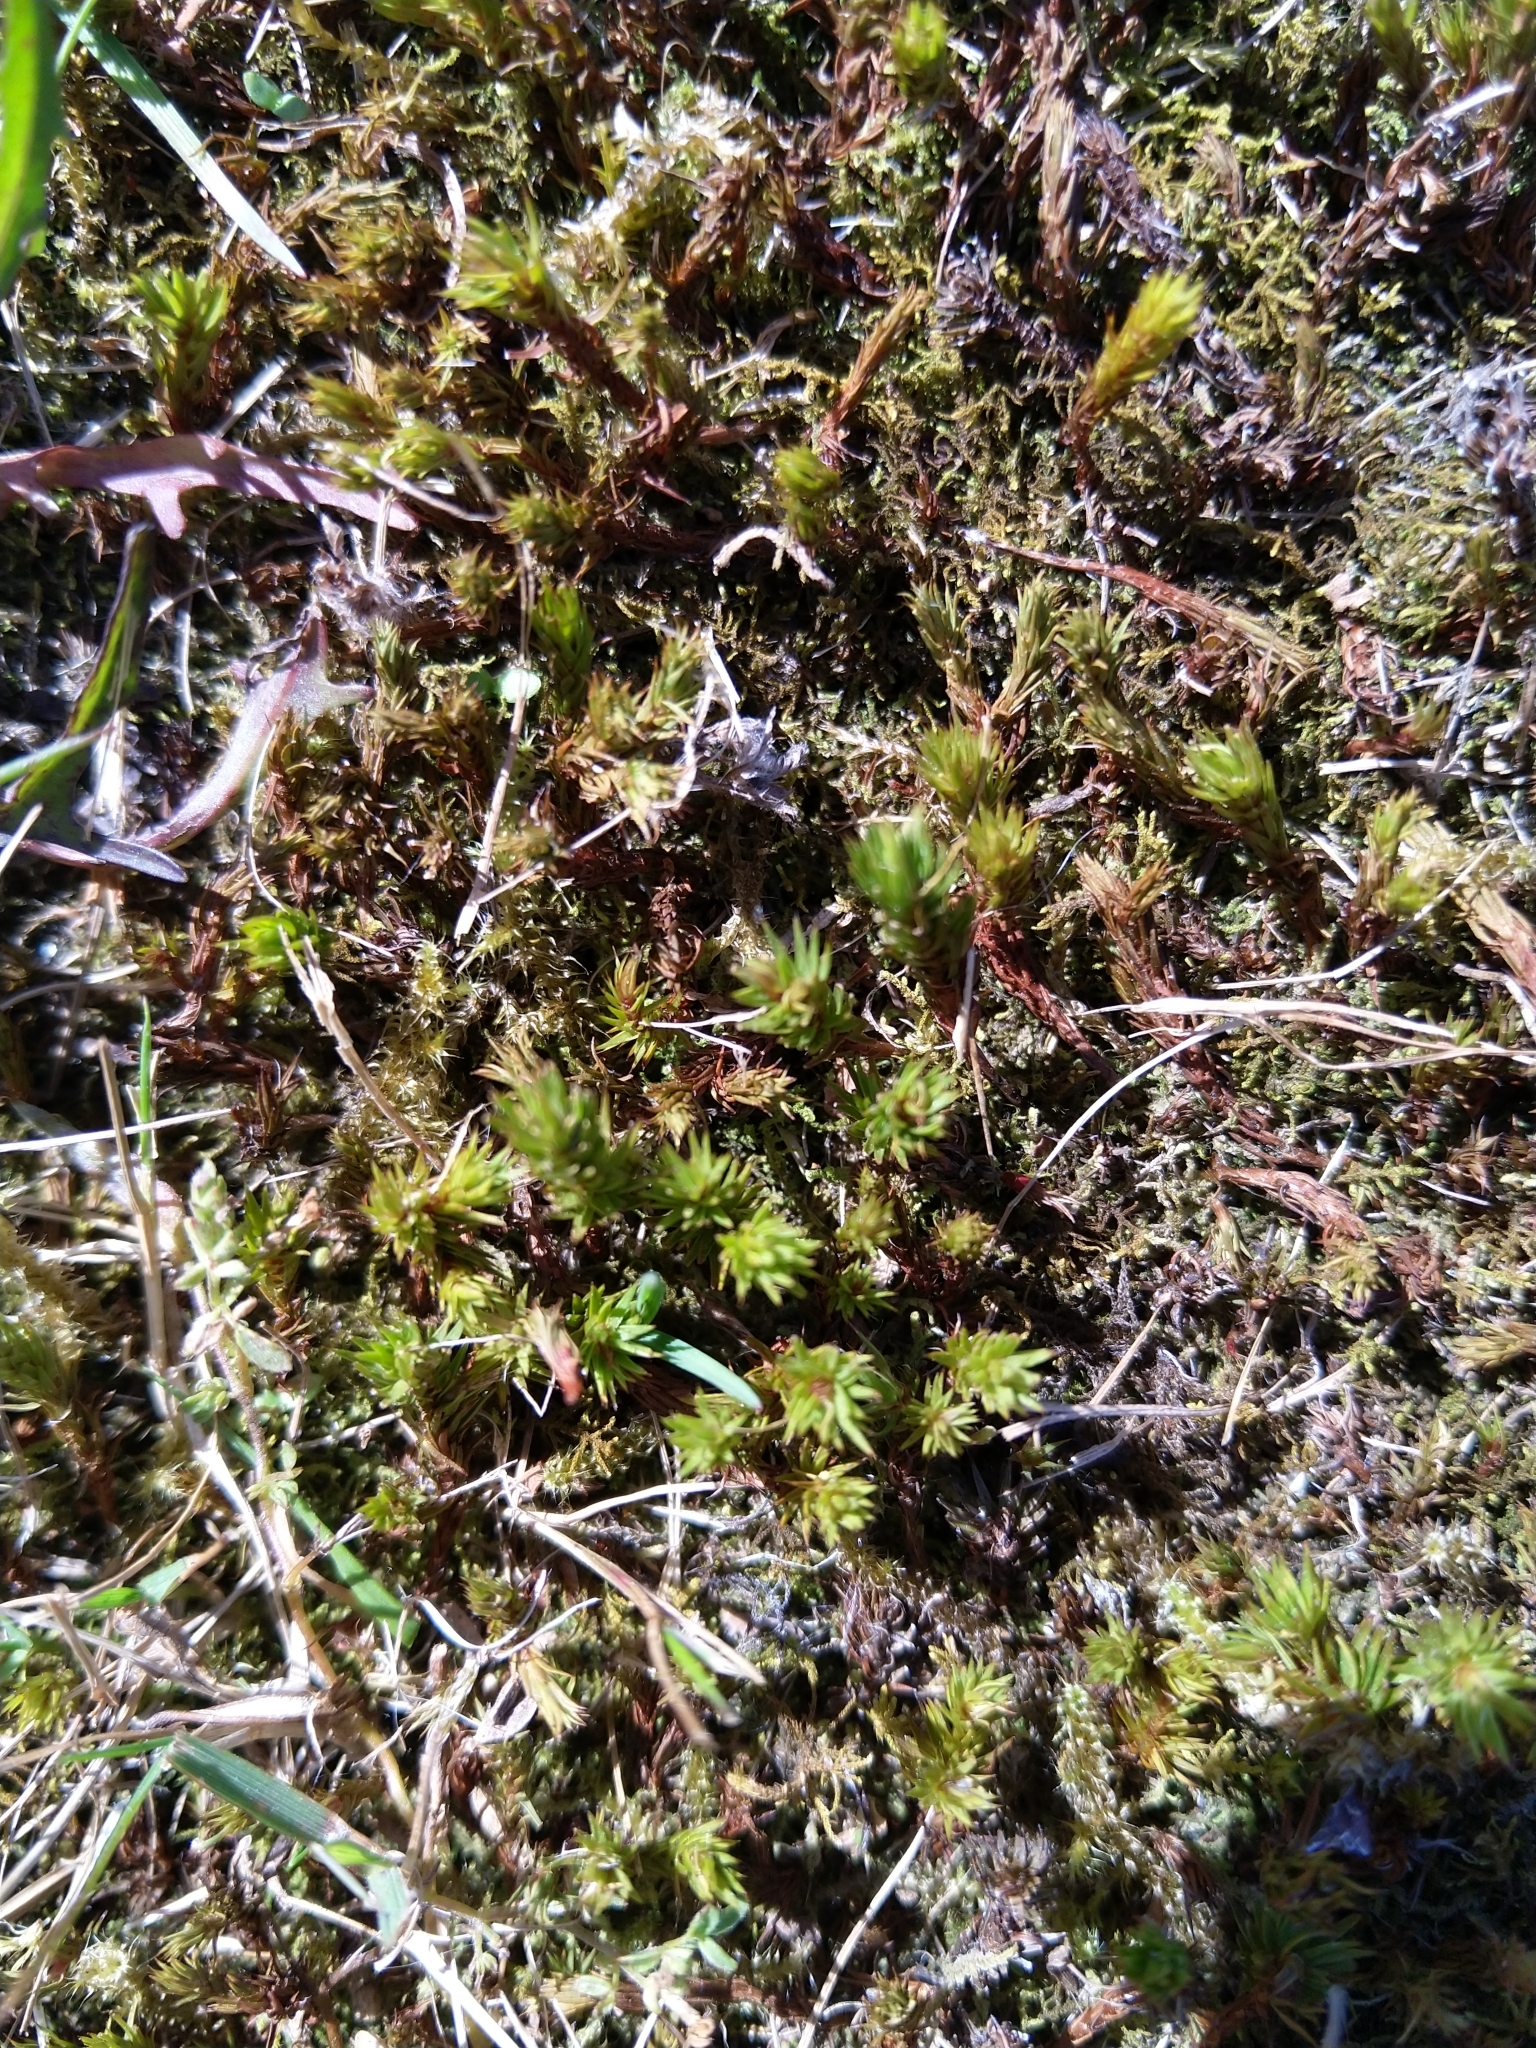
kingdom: Plantae
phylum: Bryophyta
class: Polytrichopsida
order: Polytrichales
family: Polytrichaceae
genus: Polytrichum
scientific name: Polytrichum juniperinum
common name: Juniper haircap moss
